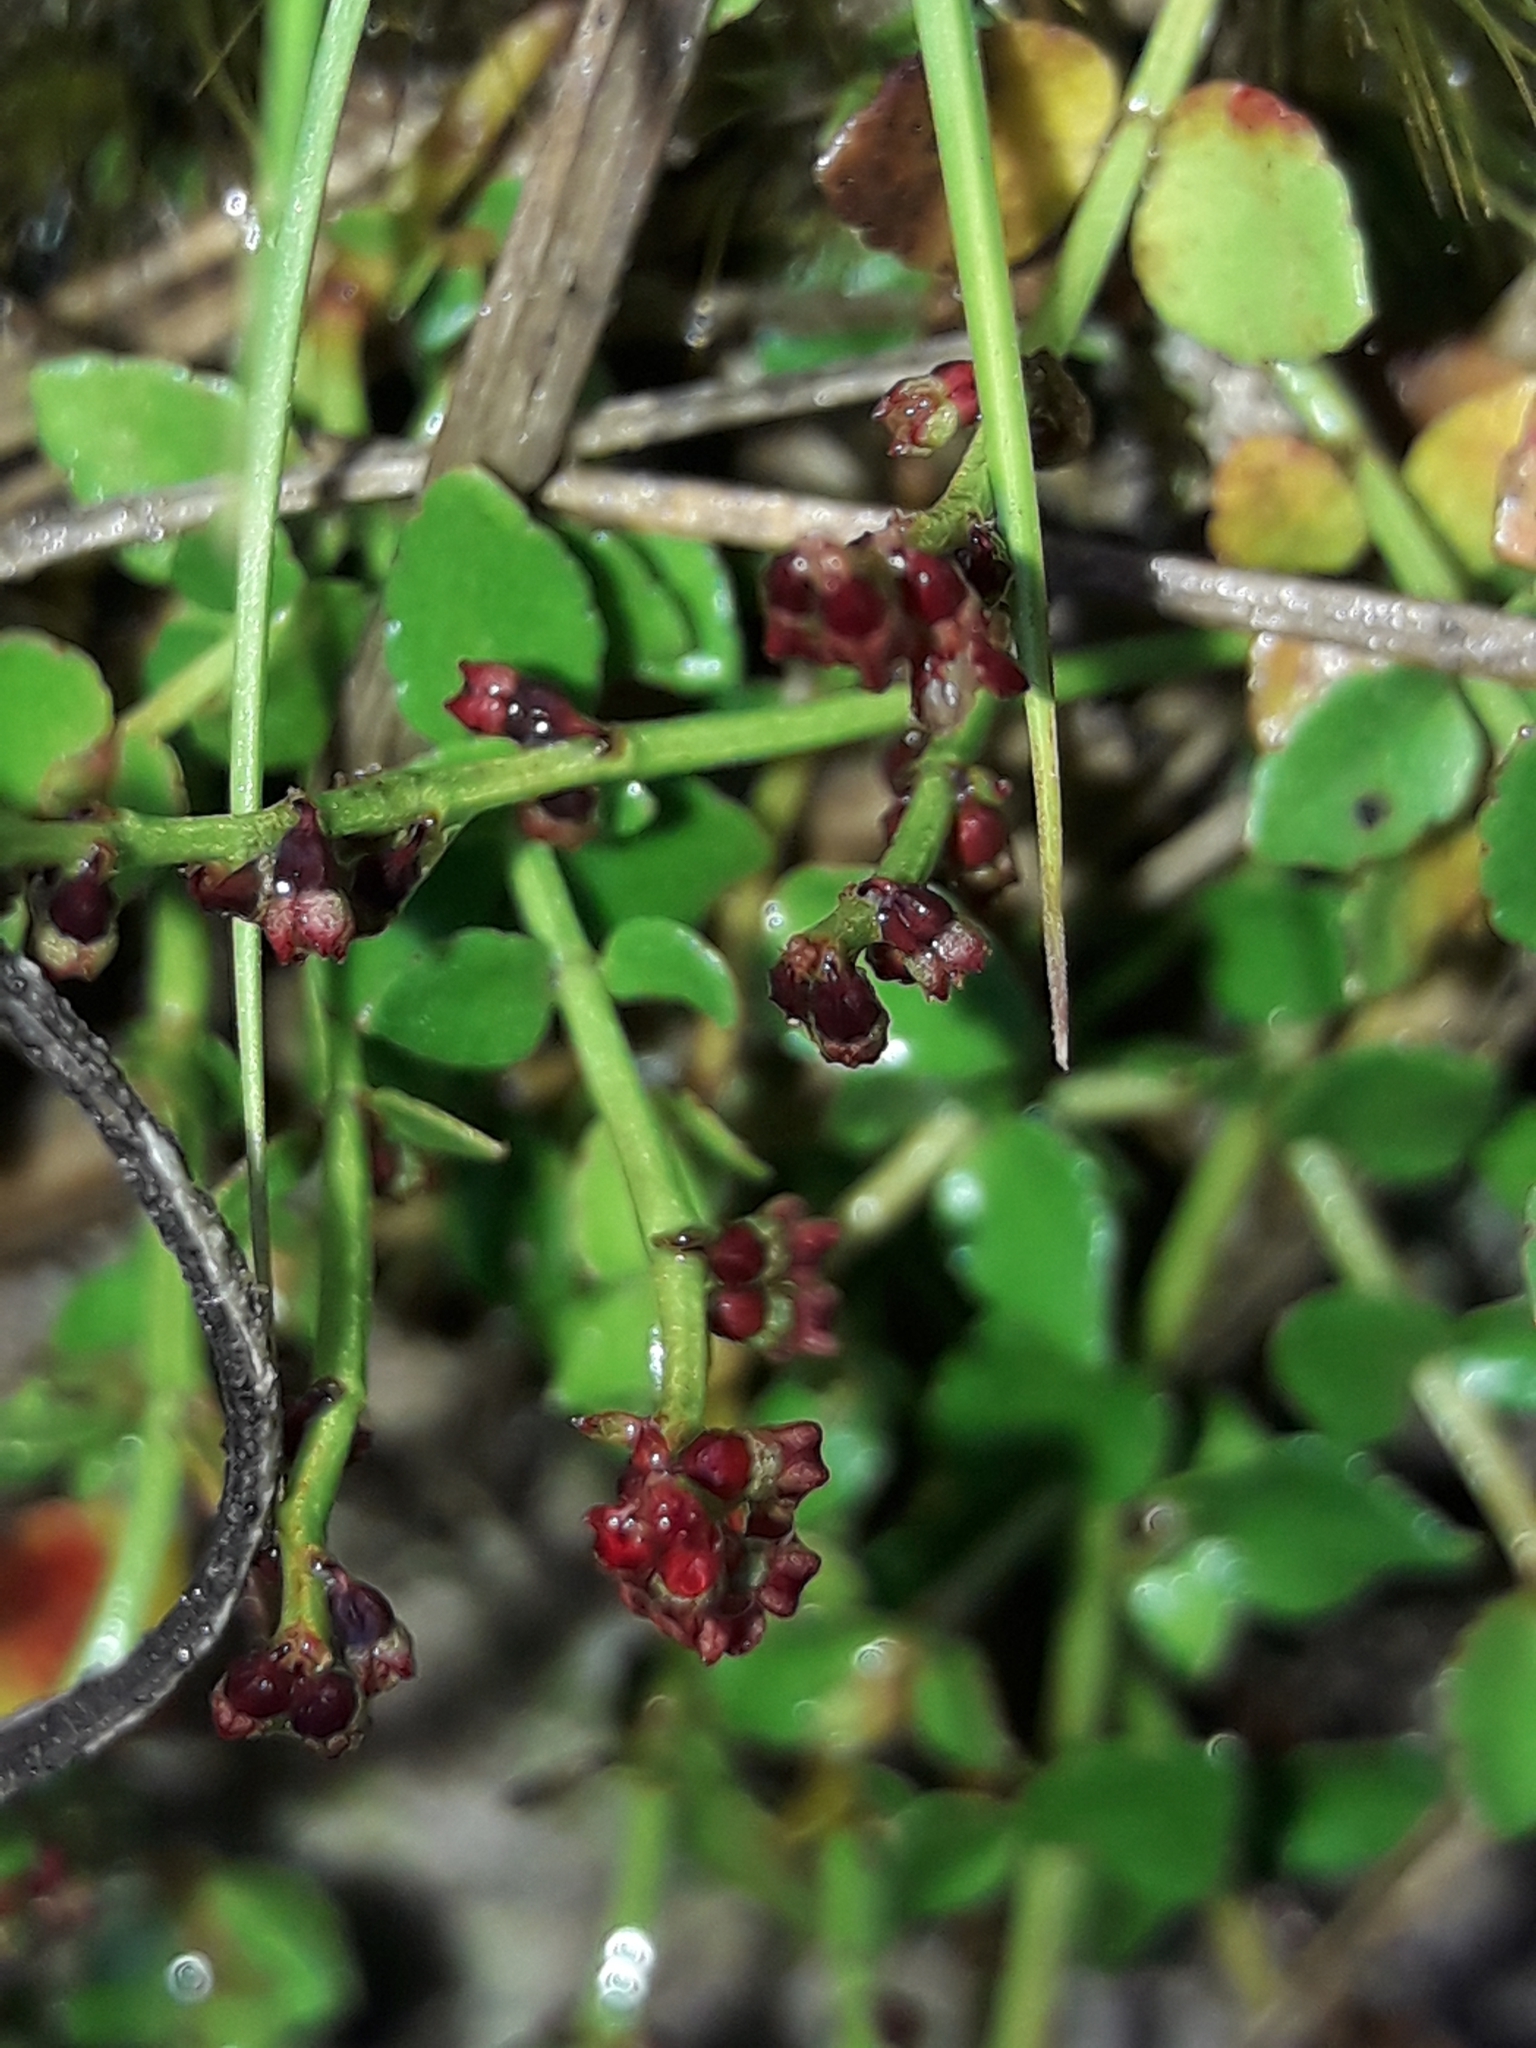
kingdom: Plantae
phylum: Tracheophyta
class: Magnoliopsida
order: Saxifragales
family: Haloragaceae
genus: Gonocarpus
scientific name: Gonocarpus micranthus
